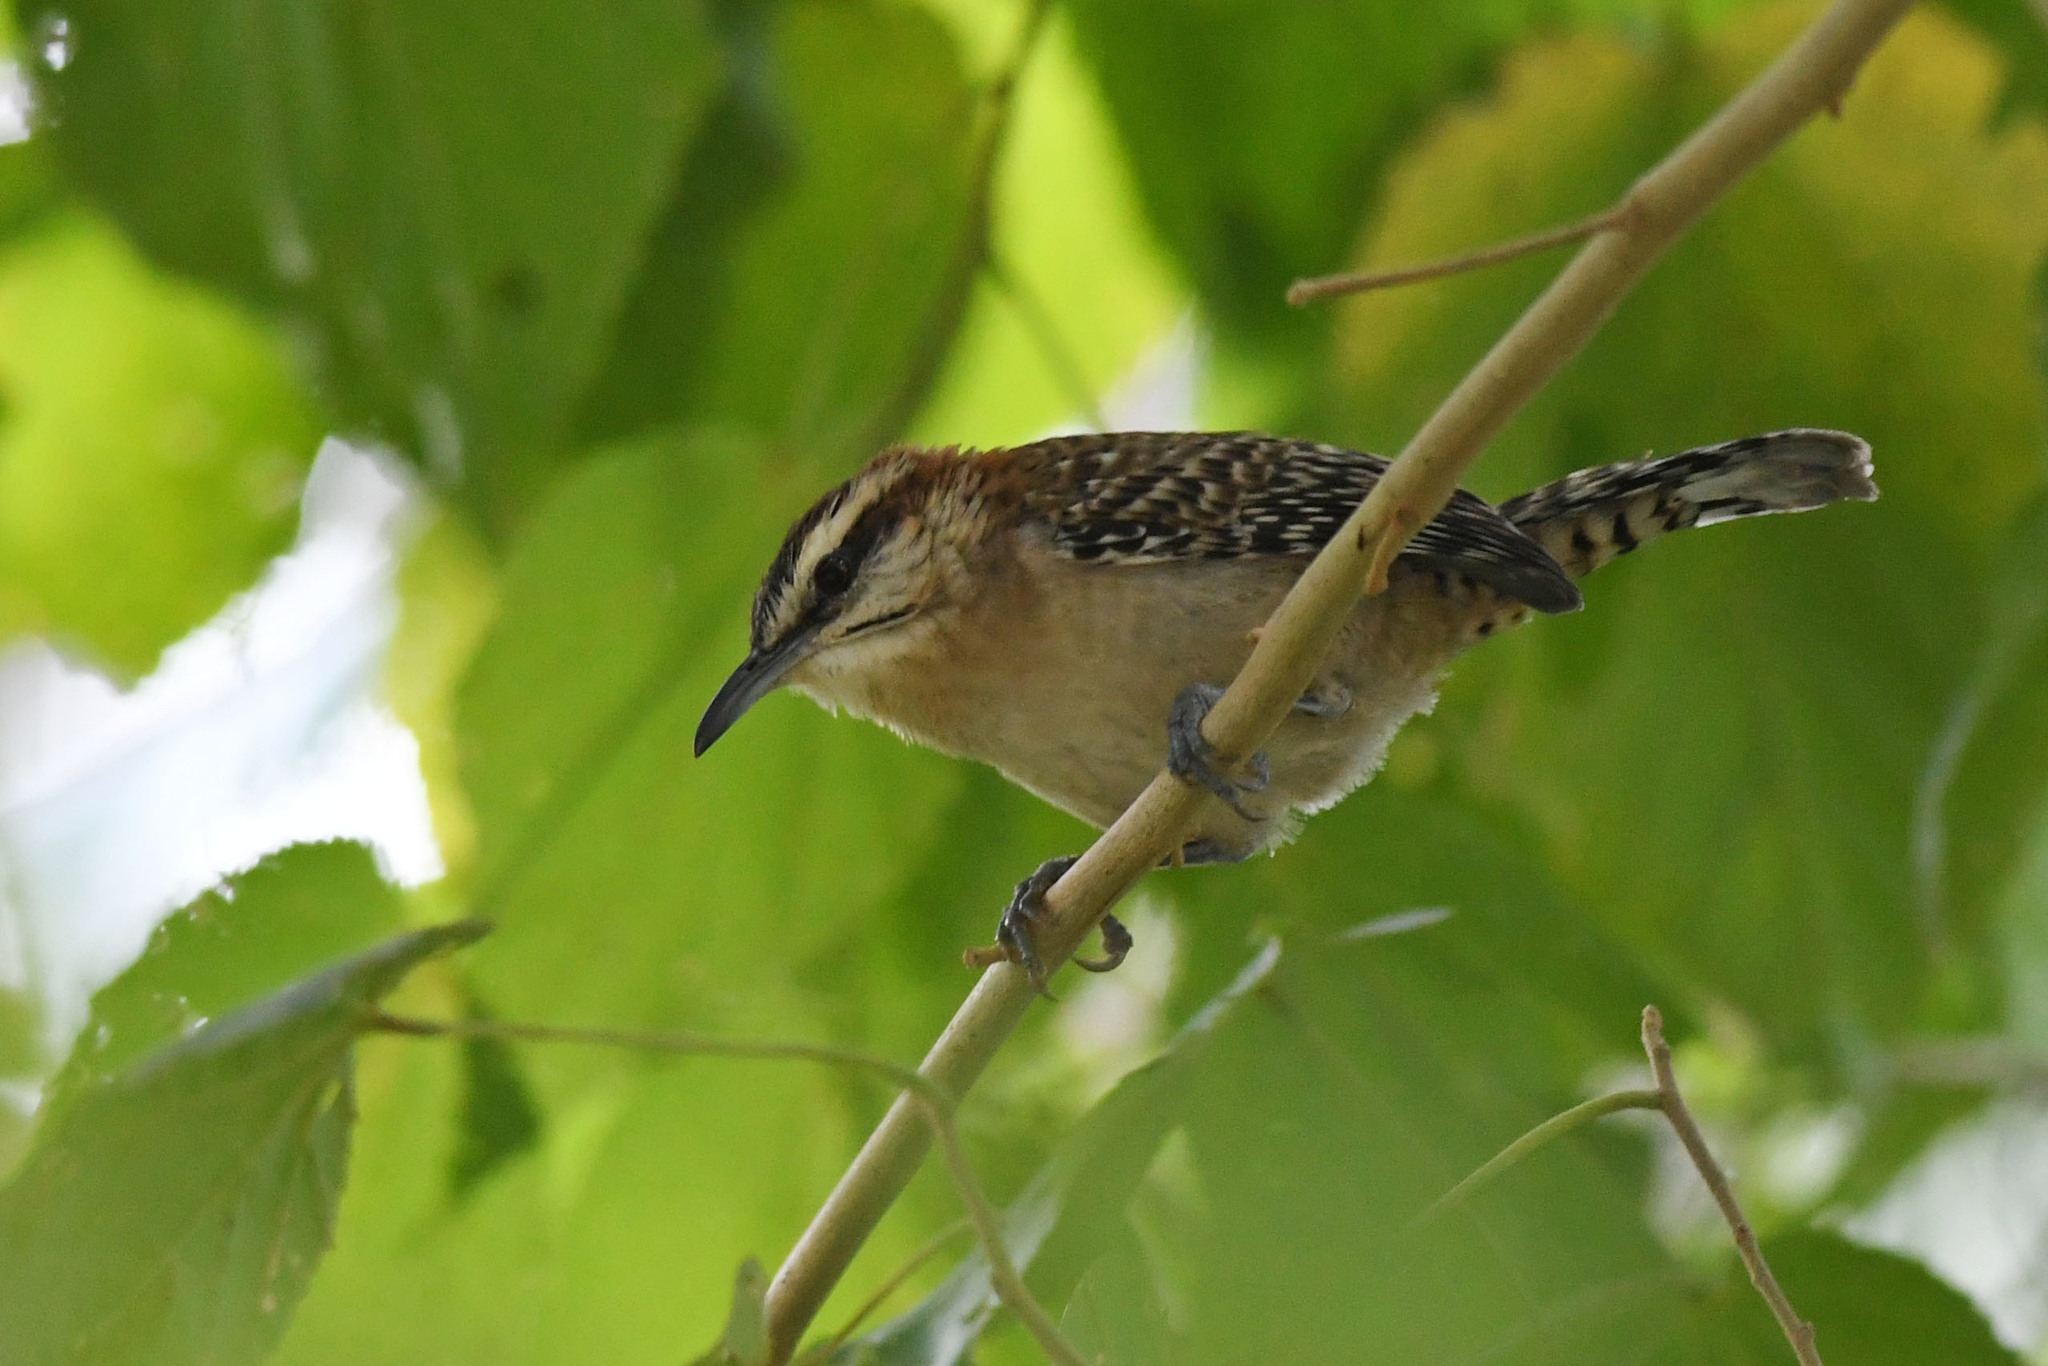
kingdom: Animalia
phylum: Chordata
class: Aves
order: Passeriformes
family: Troglodytidae
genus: Campylorhynchus
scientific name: Campylorhynchus rufinucha
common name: Rufous-naped wren
